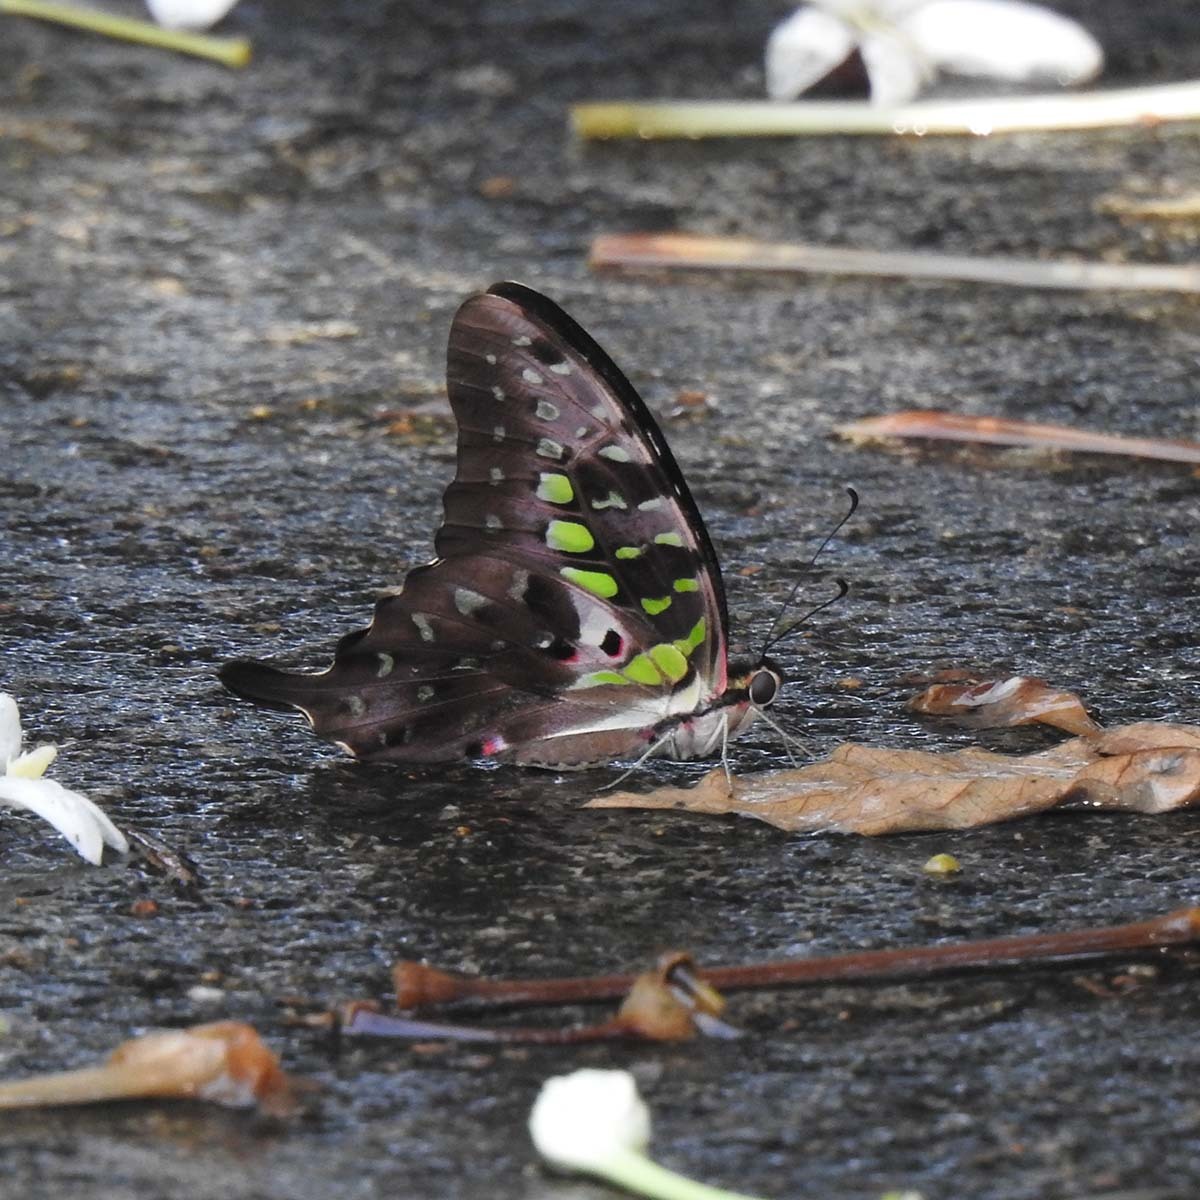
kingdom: Animalia
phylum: Arthropoda
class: Insecta
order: Lepidoptera
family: Papilionidae
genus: Graphium
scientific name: Graphium agamemnon
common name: Tailed jay
